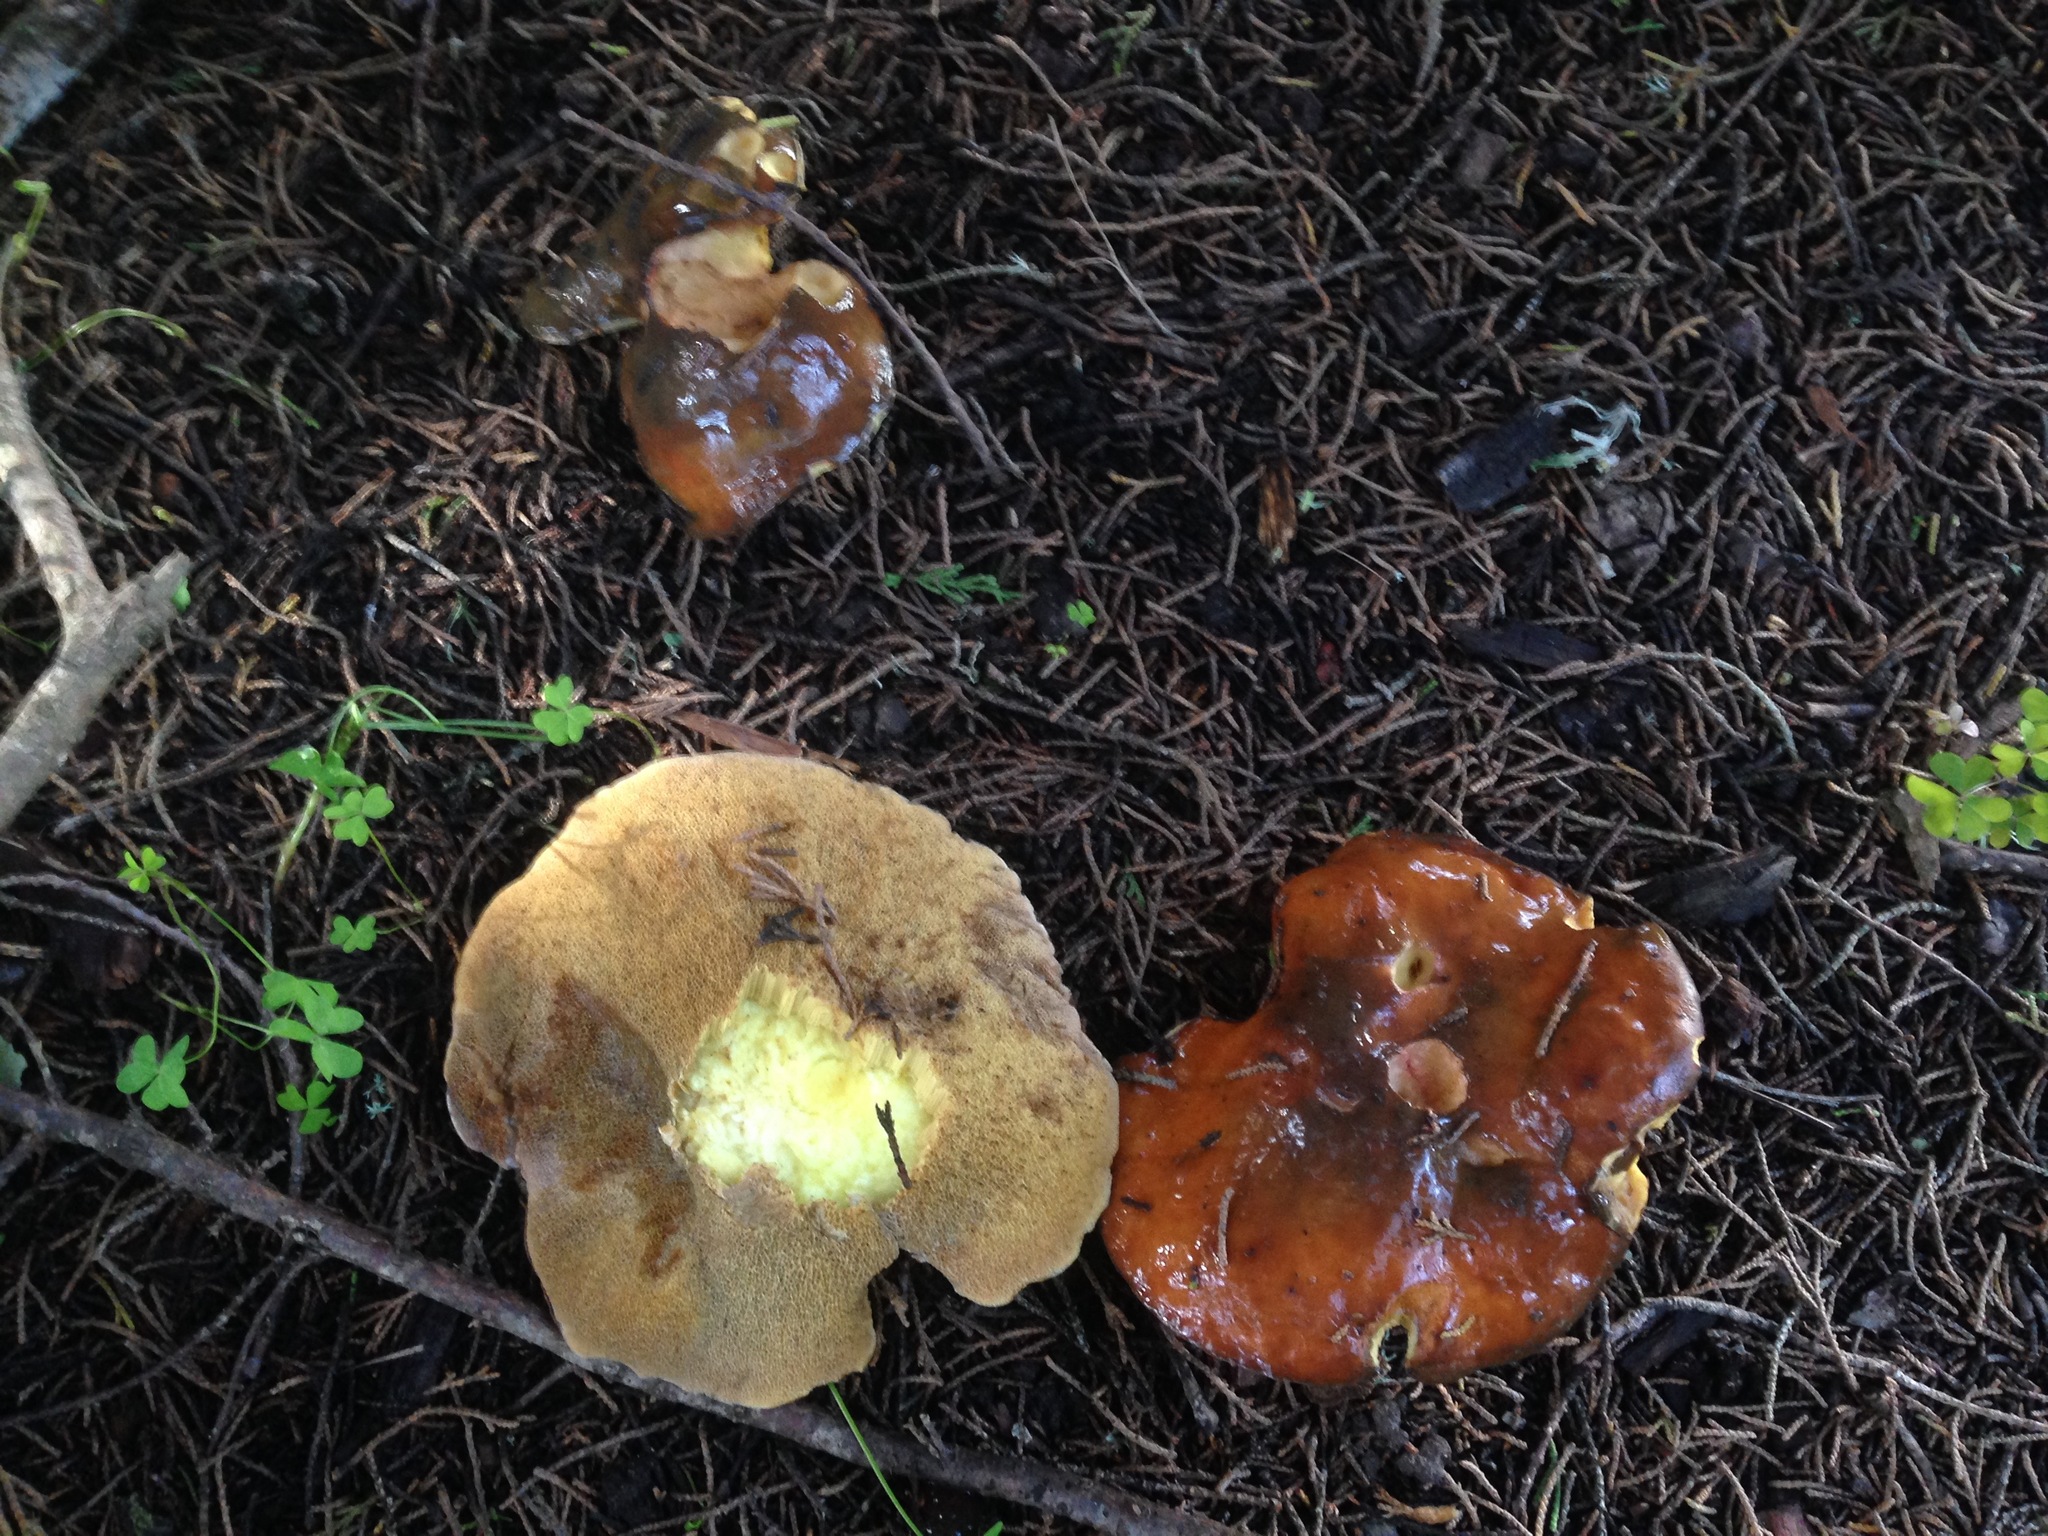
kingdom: Fungi
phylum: Basidiomycota
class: Agaricomycetes
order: Boletales
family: Suillaceae
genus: Suillus
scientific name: Suillus pungens
